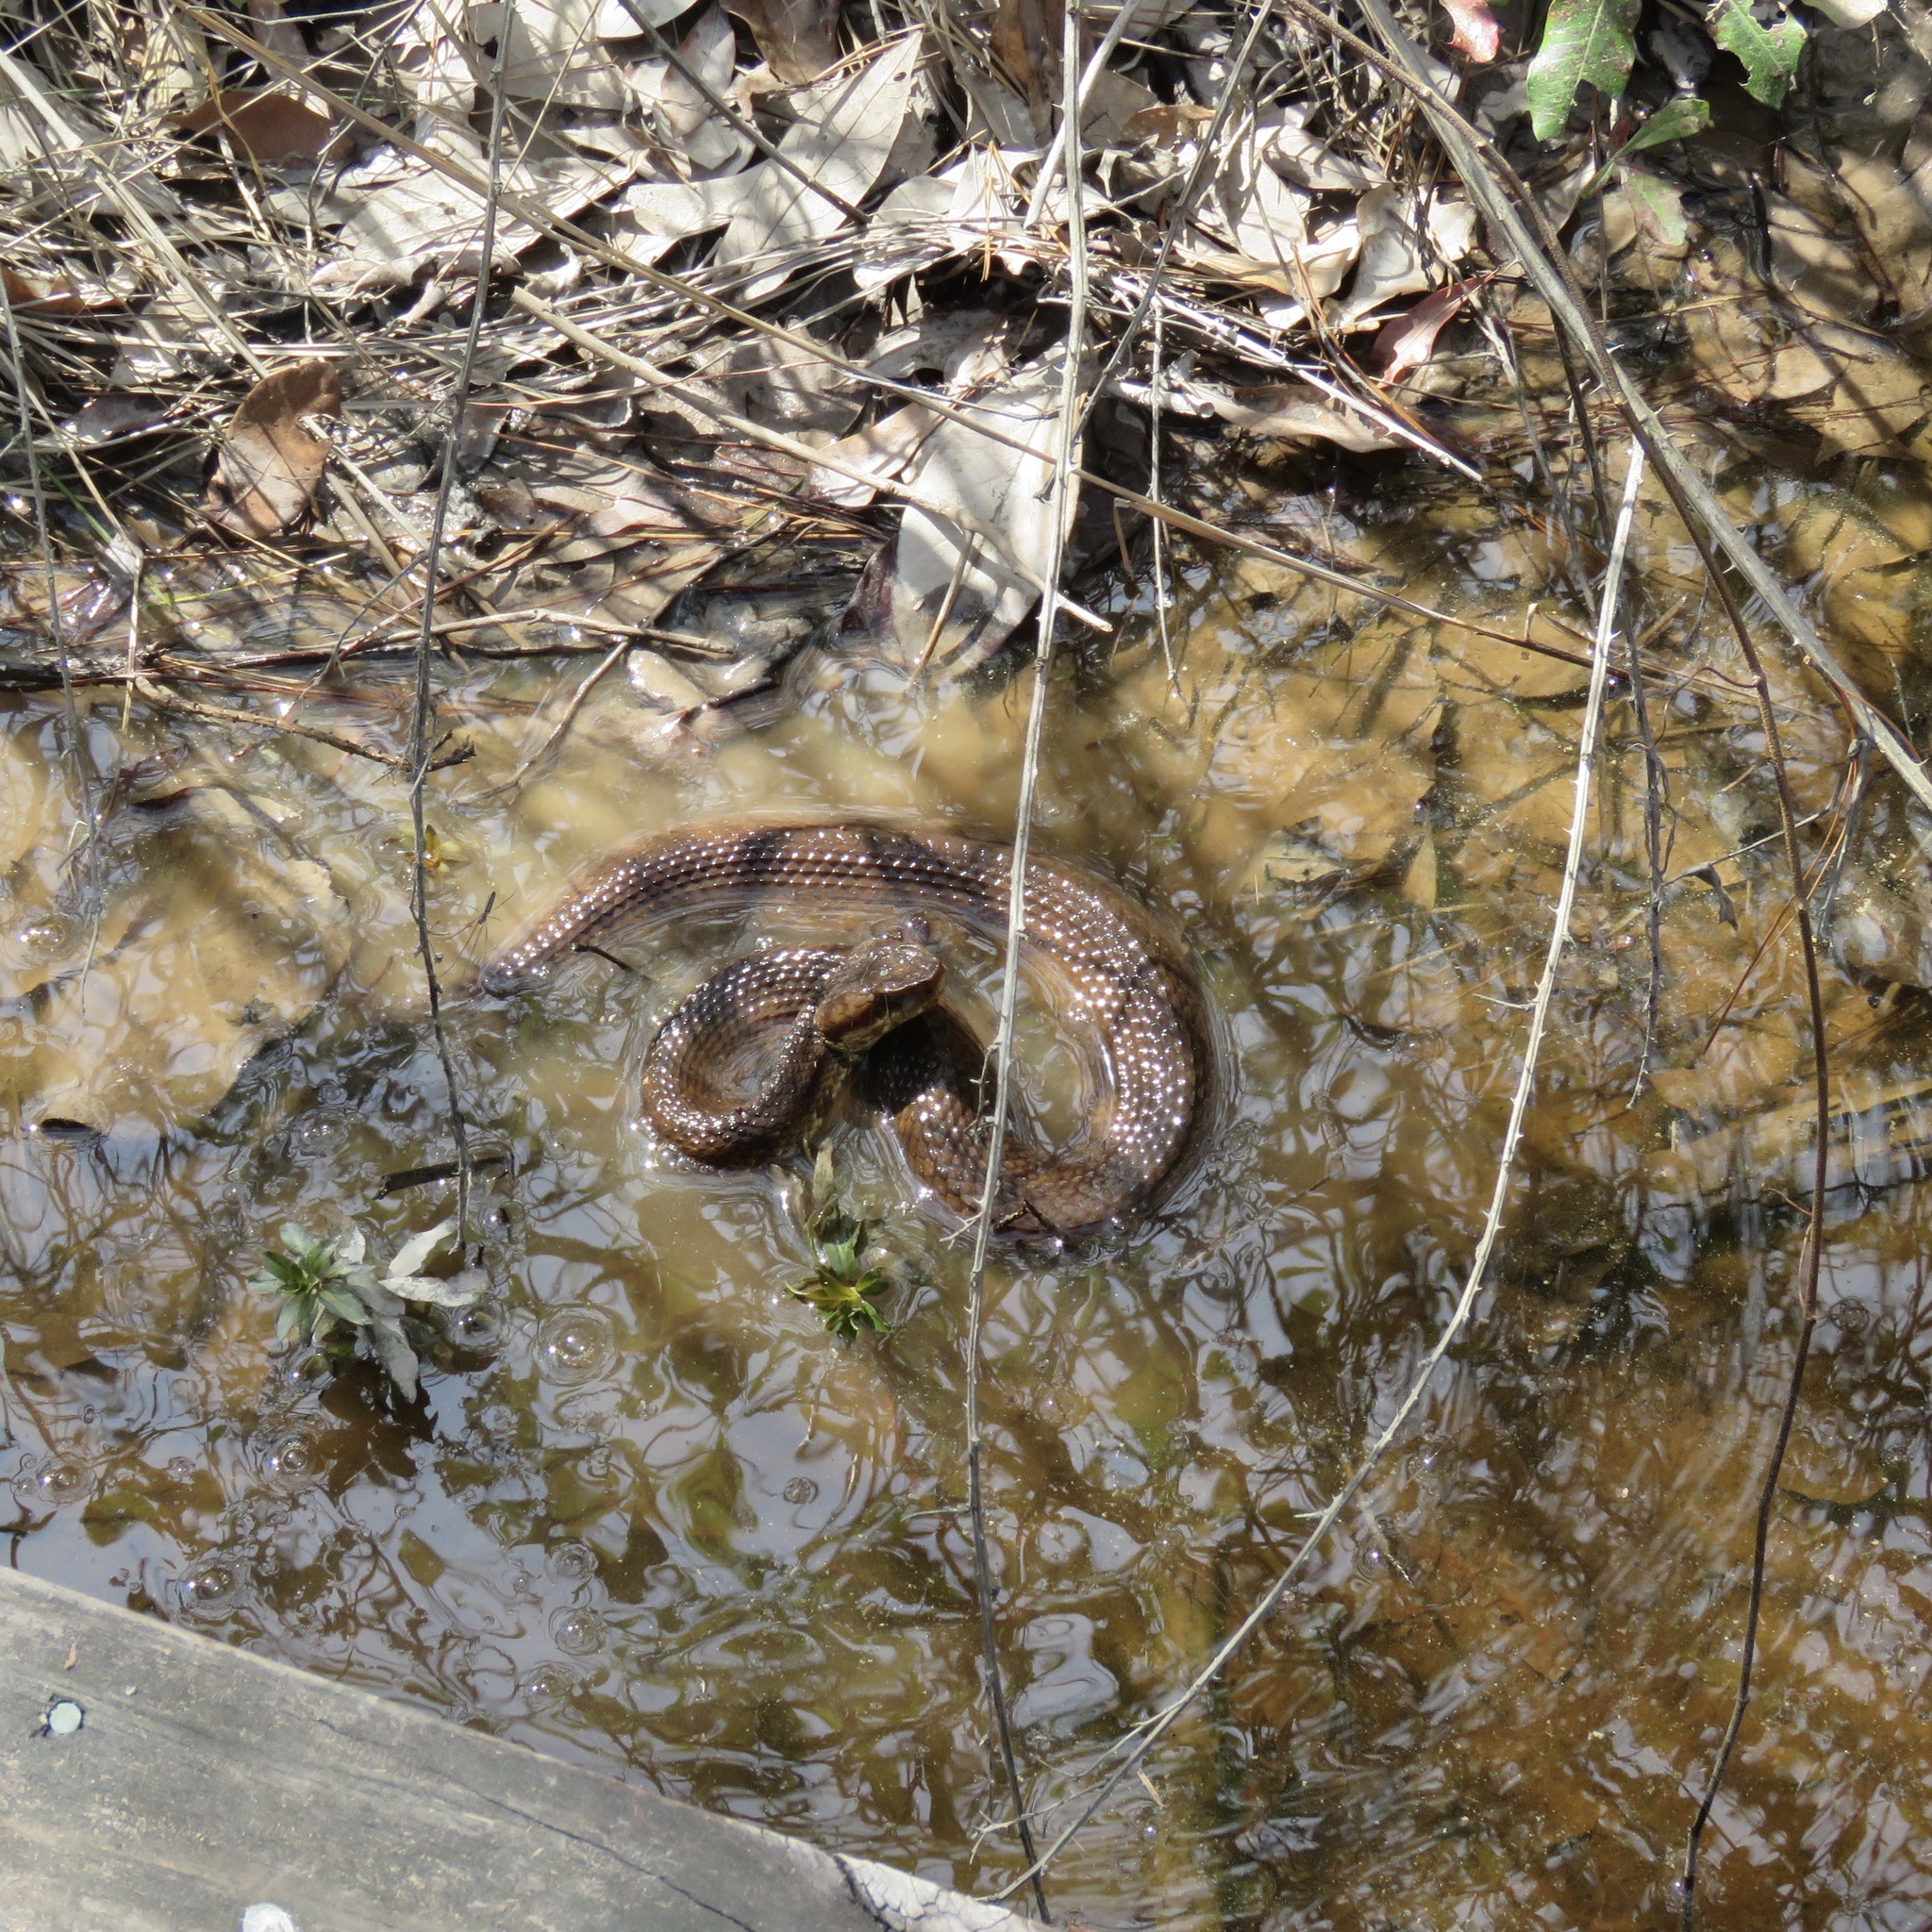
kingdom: Animalia
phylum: Chordata
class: Squamata
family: Viperidae
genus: Agkistrodon
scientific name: Agkistrodon piscivorus
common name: Cottonmouth
